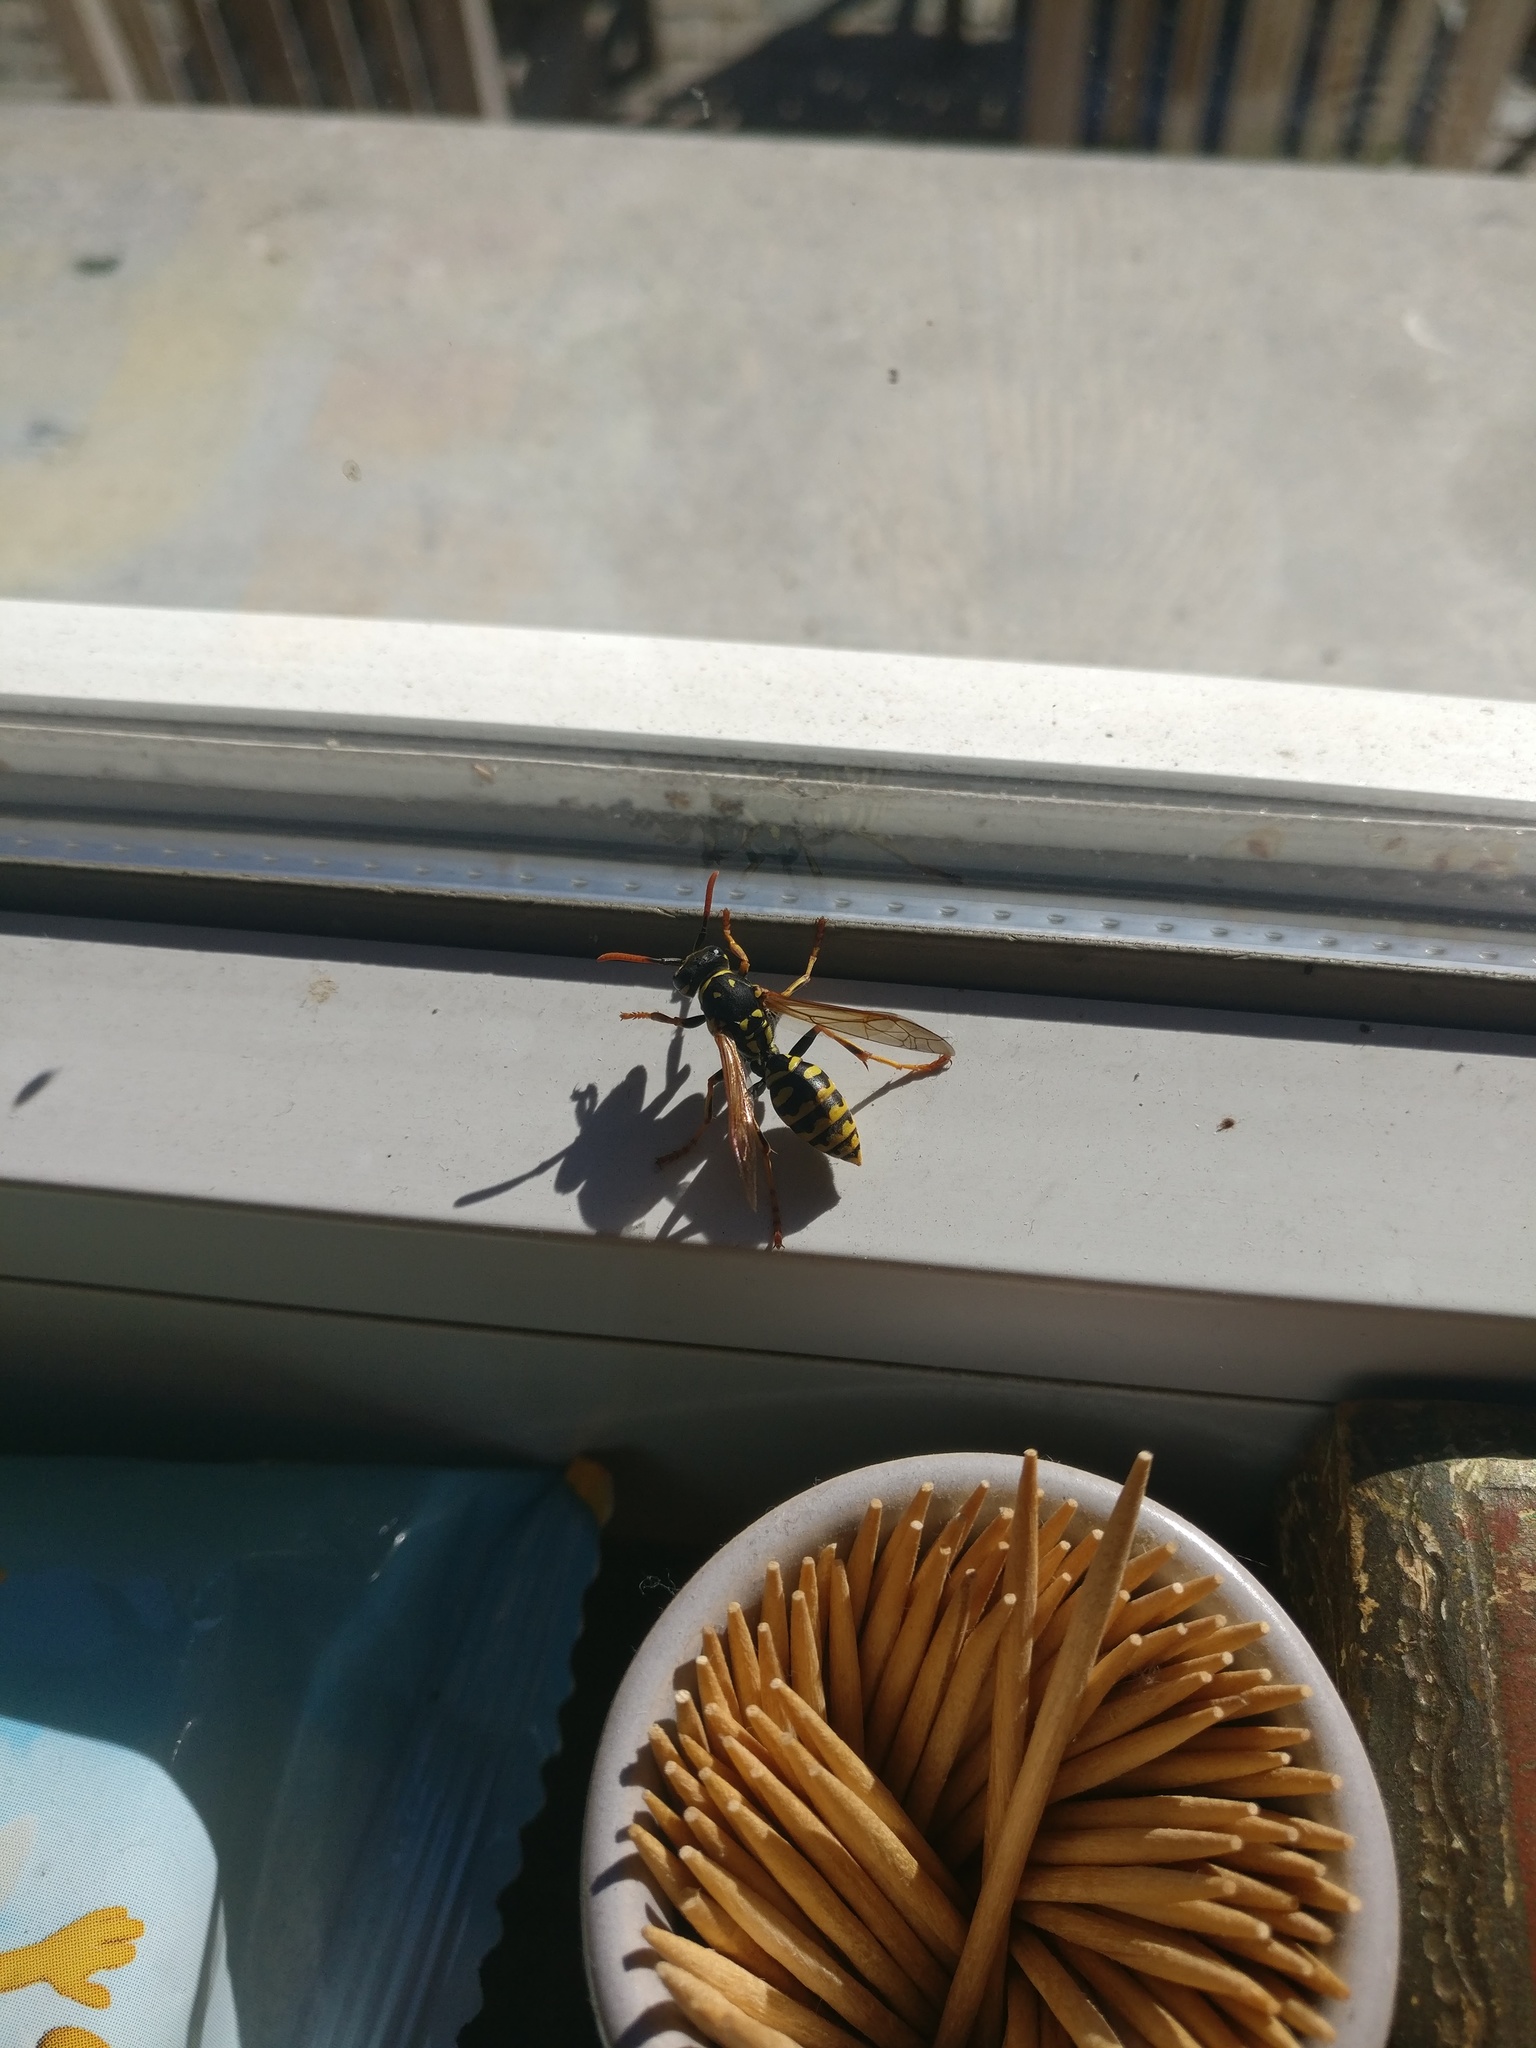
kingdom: Animalia
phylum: Arthropoda
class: Insecta
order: Hymenoptera
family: Eumenidae
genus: Polistes
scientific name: Polistes dominula
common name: Paper wasp
